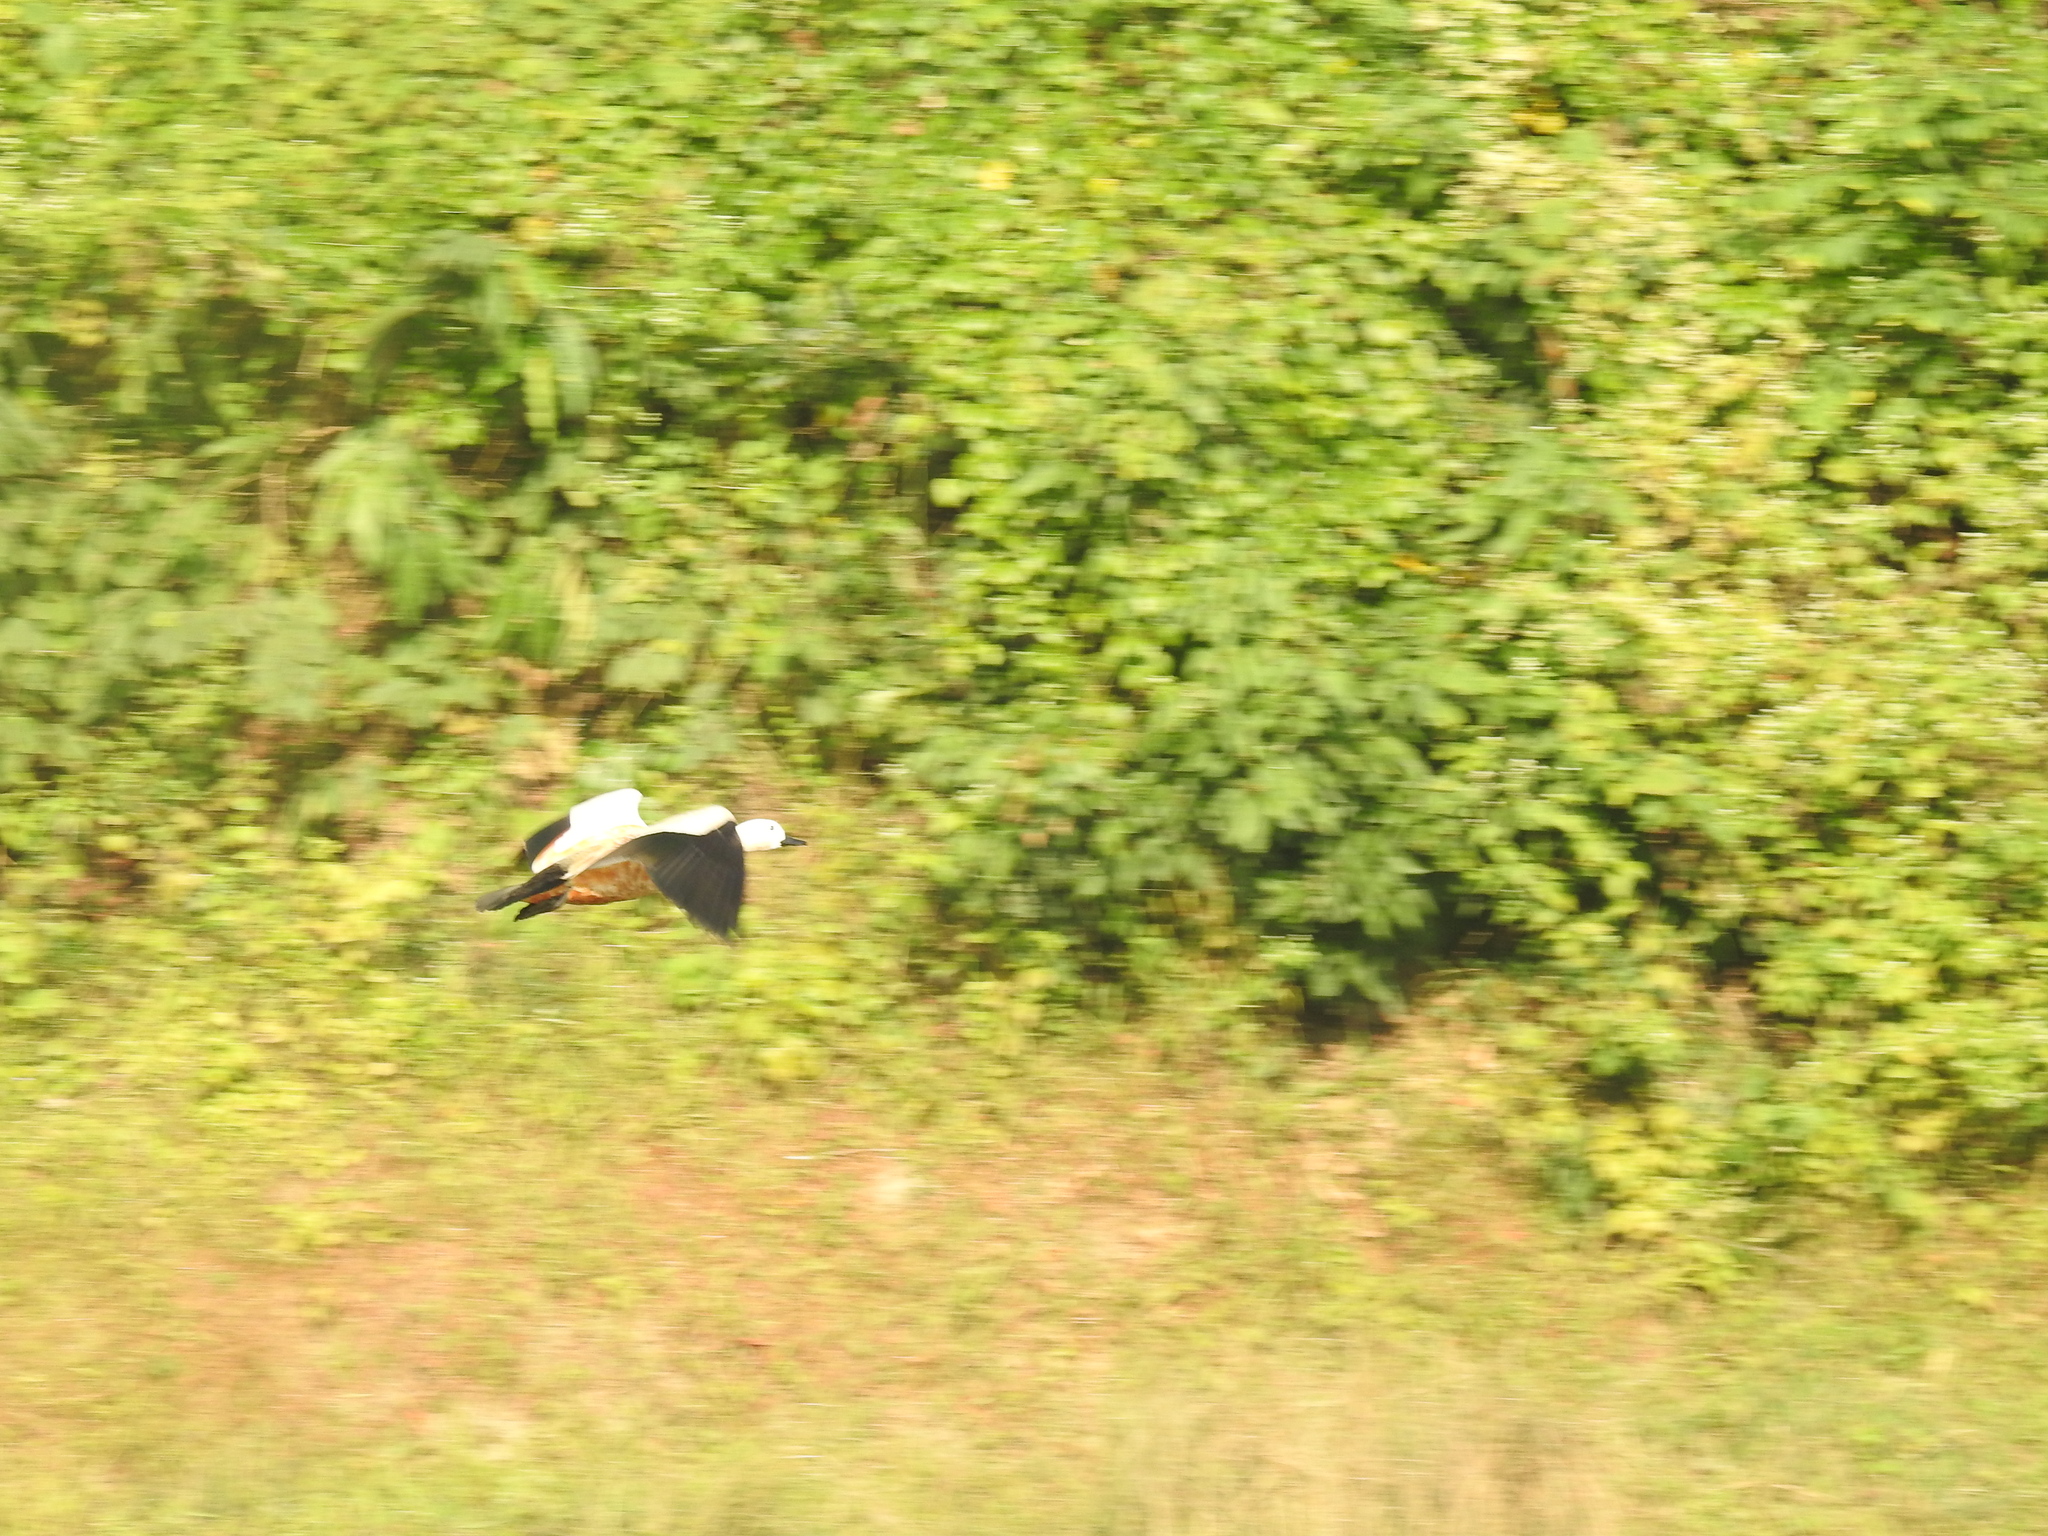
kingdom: Animalia
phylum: Chordata
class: Aves
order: Anseriformes
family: Anatidae
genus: Tadorna
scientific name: Tadorna ferruginea
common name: Ruddy shelduck
